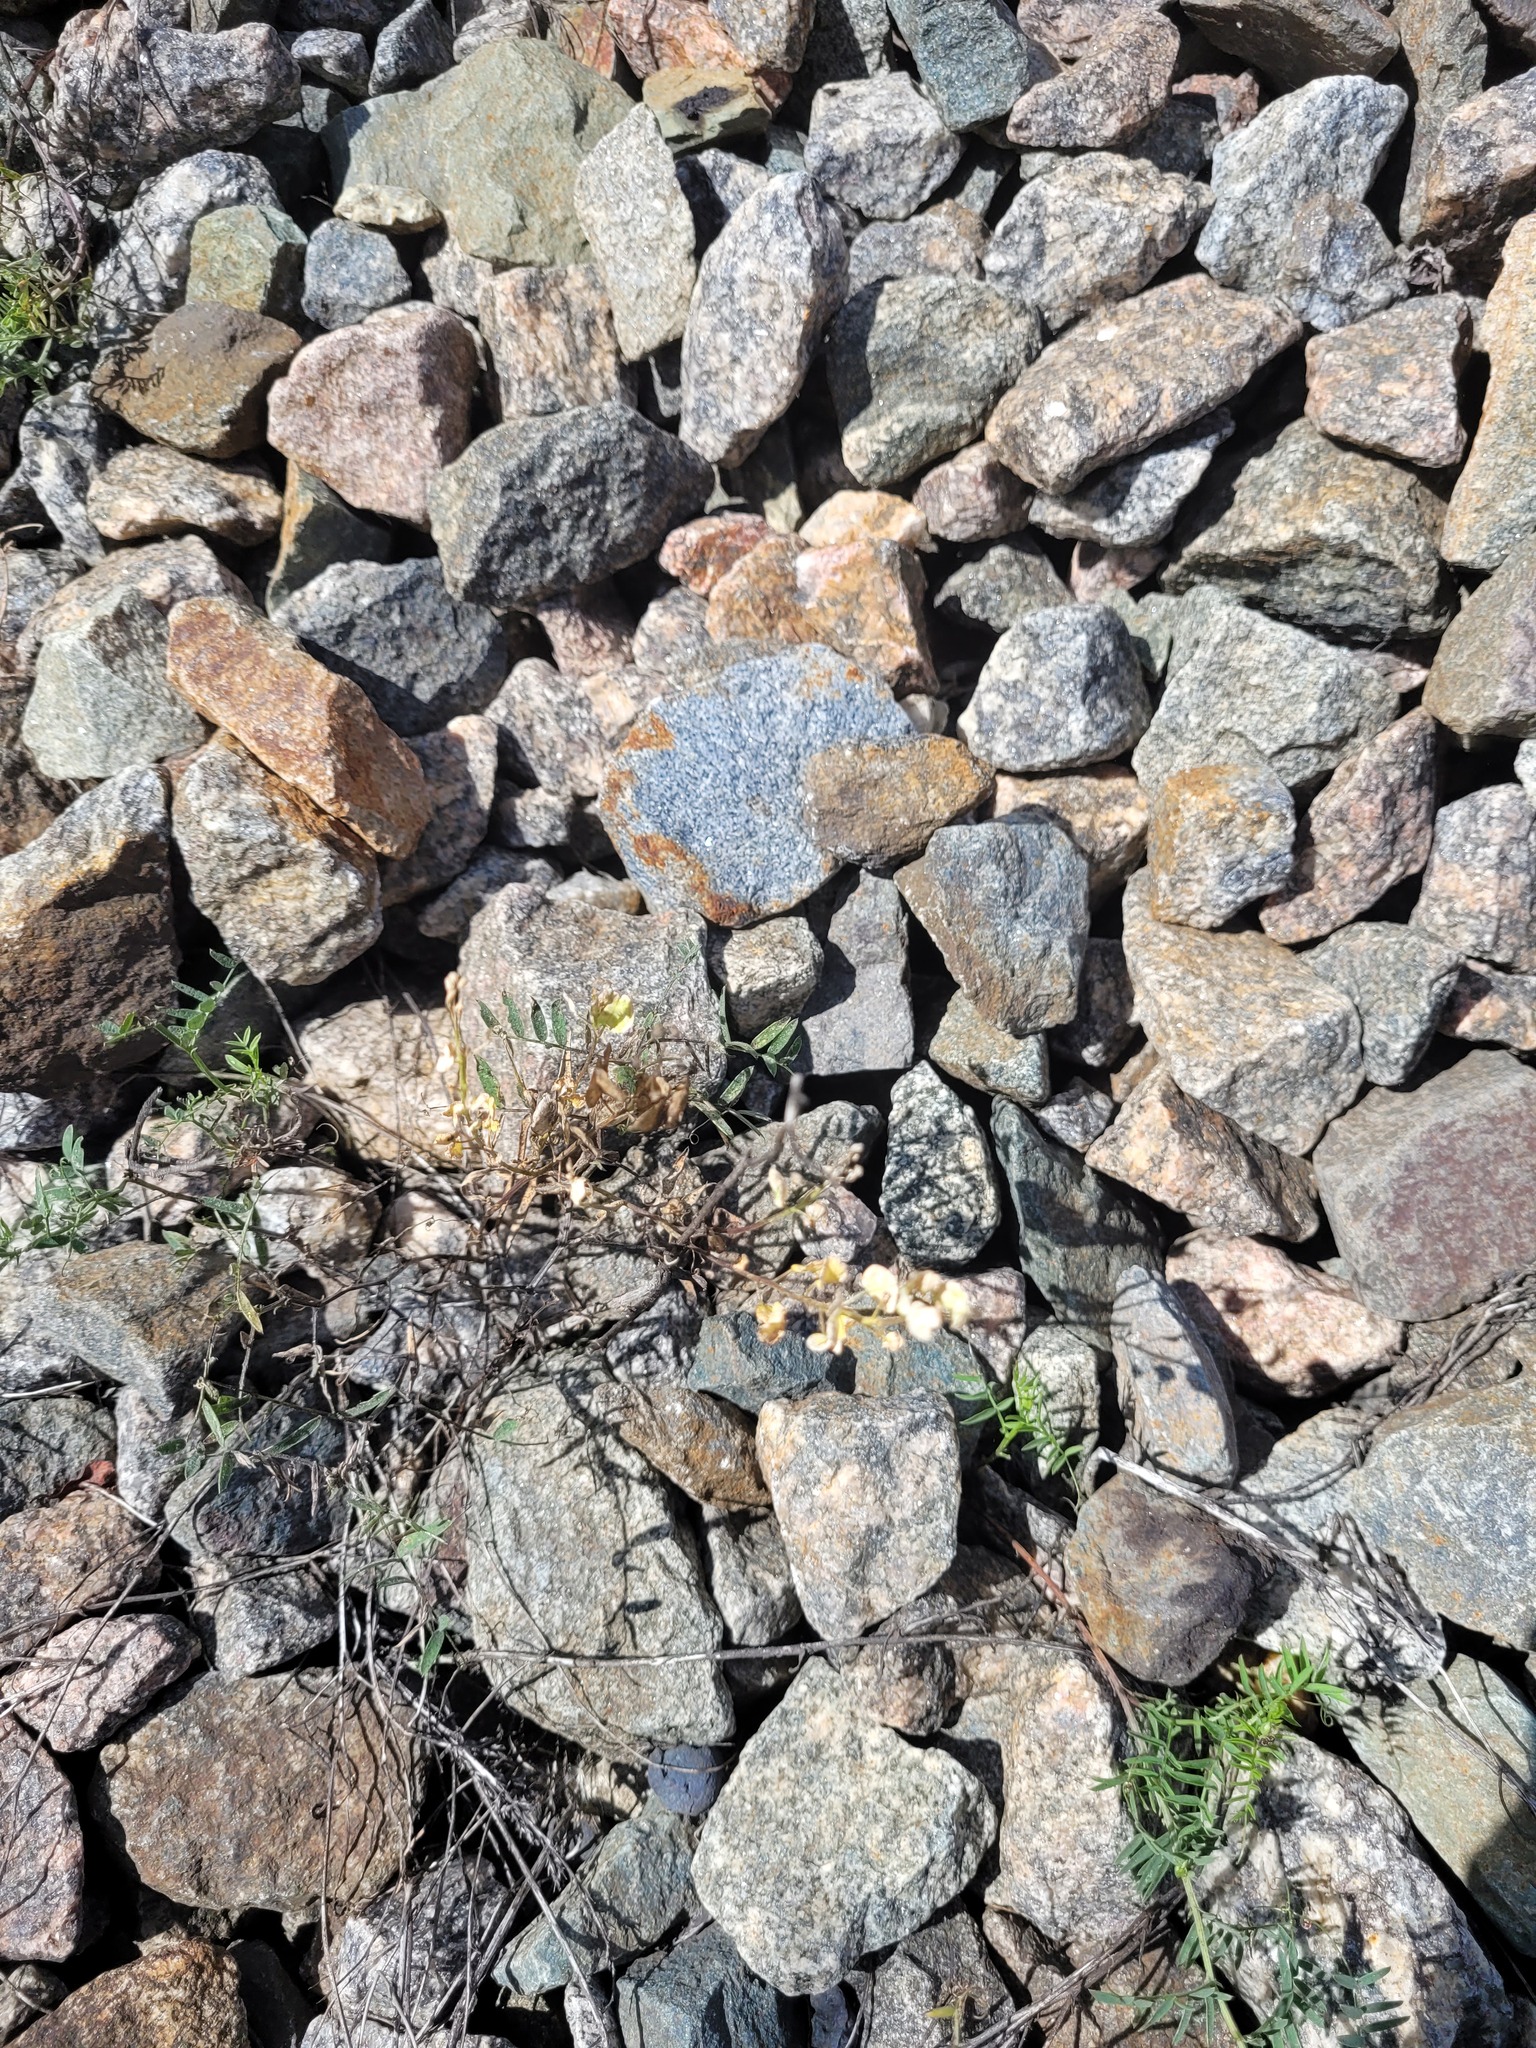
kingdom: Plantae
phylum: Tracheophyta
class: Magnoliopsida
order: Brassicales
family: Brassicaceae
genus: Thlaspi
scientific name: Thlaspi arvense
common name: Field pennycress
